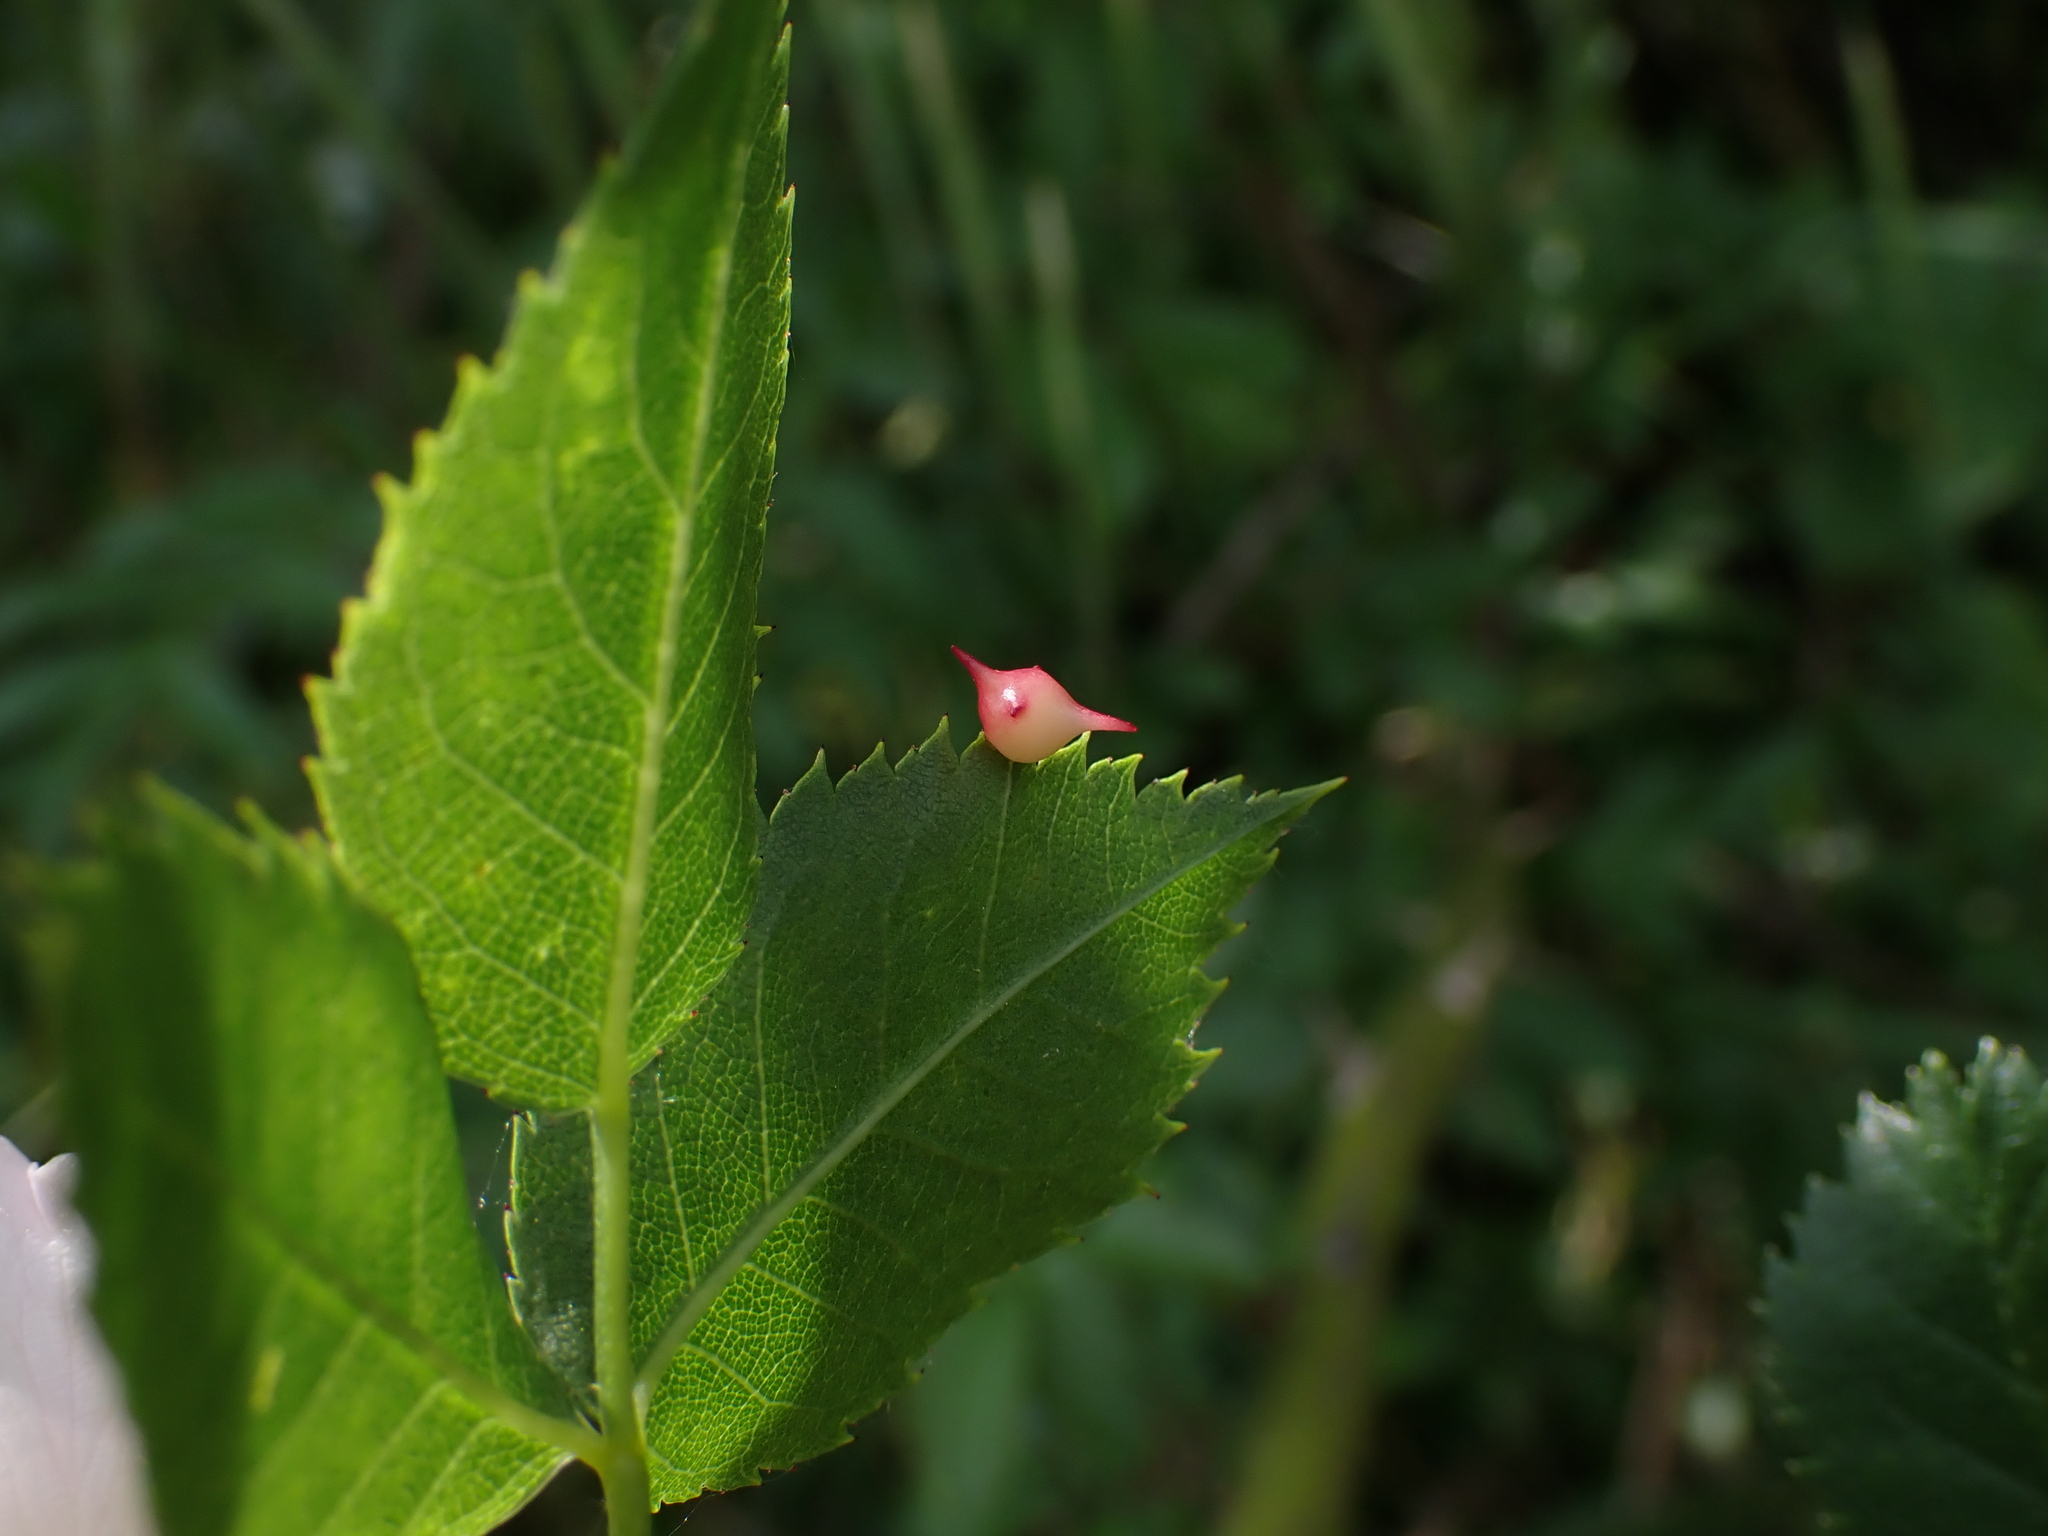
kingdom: Animalia
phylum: Arthropoda
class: Insecta
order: Hymenoptera
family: Cynipidae
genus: Diplolepis
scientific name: Diplolepis nervosa
